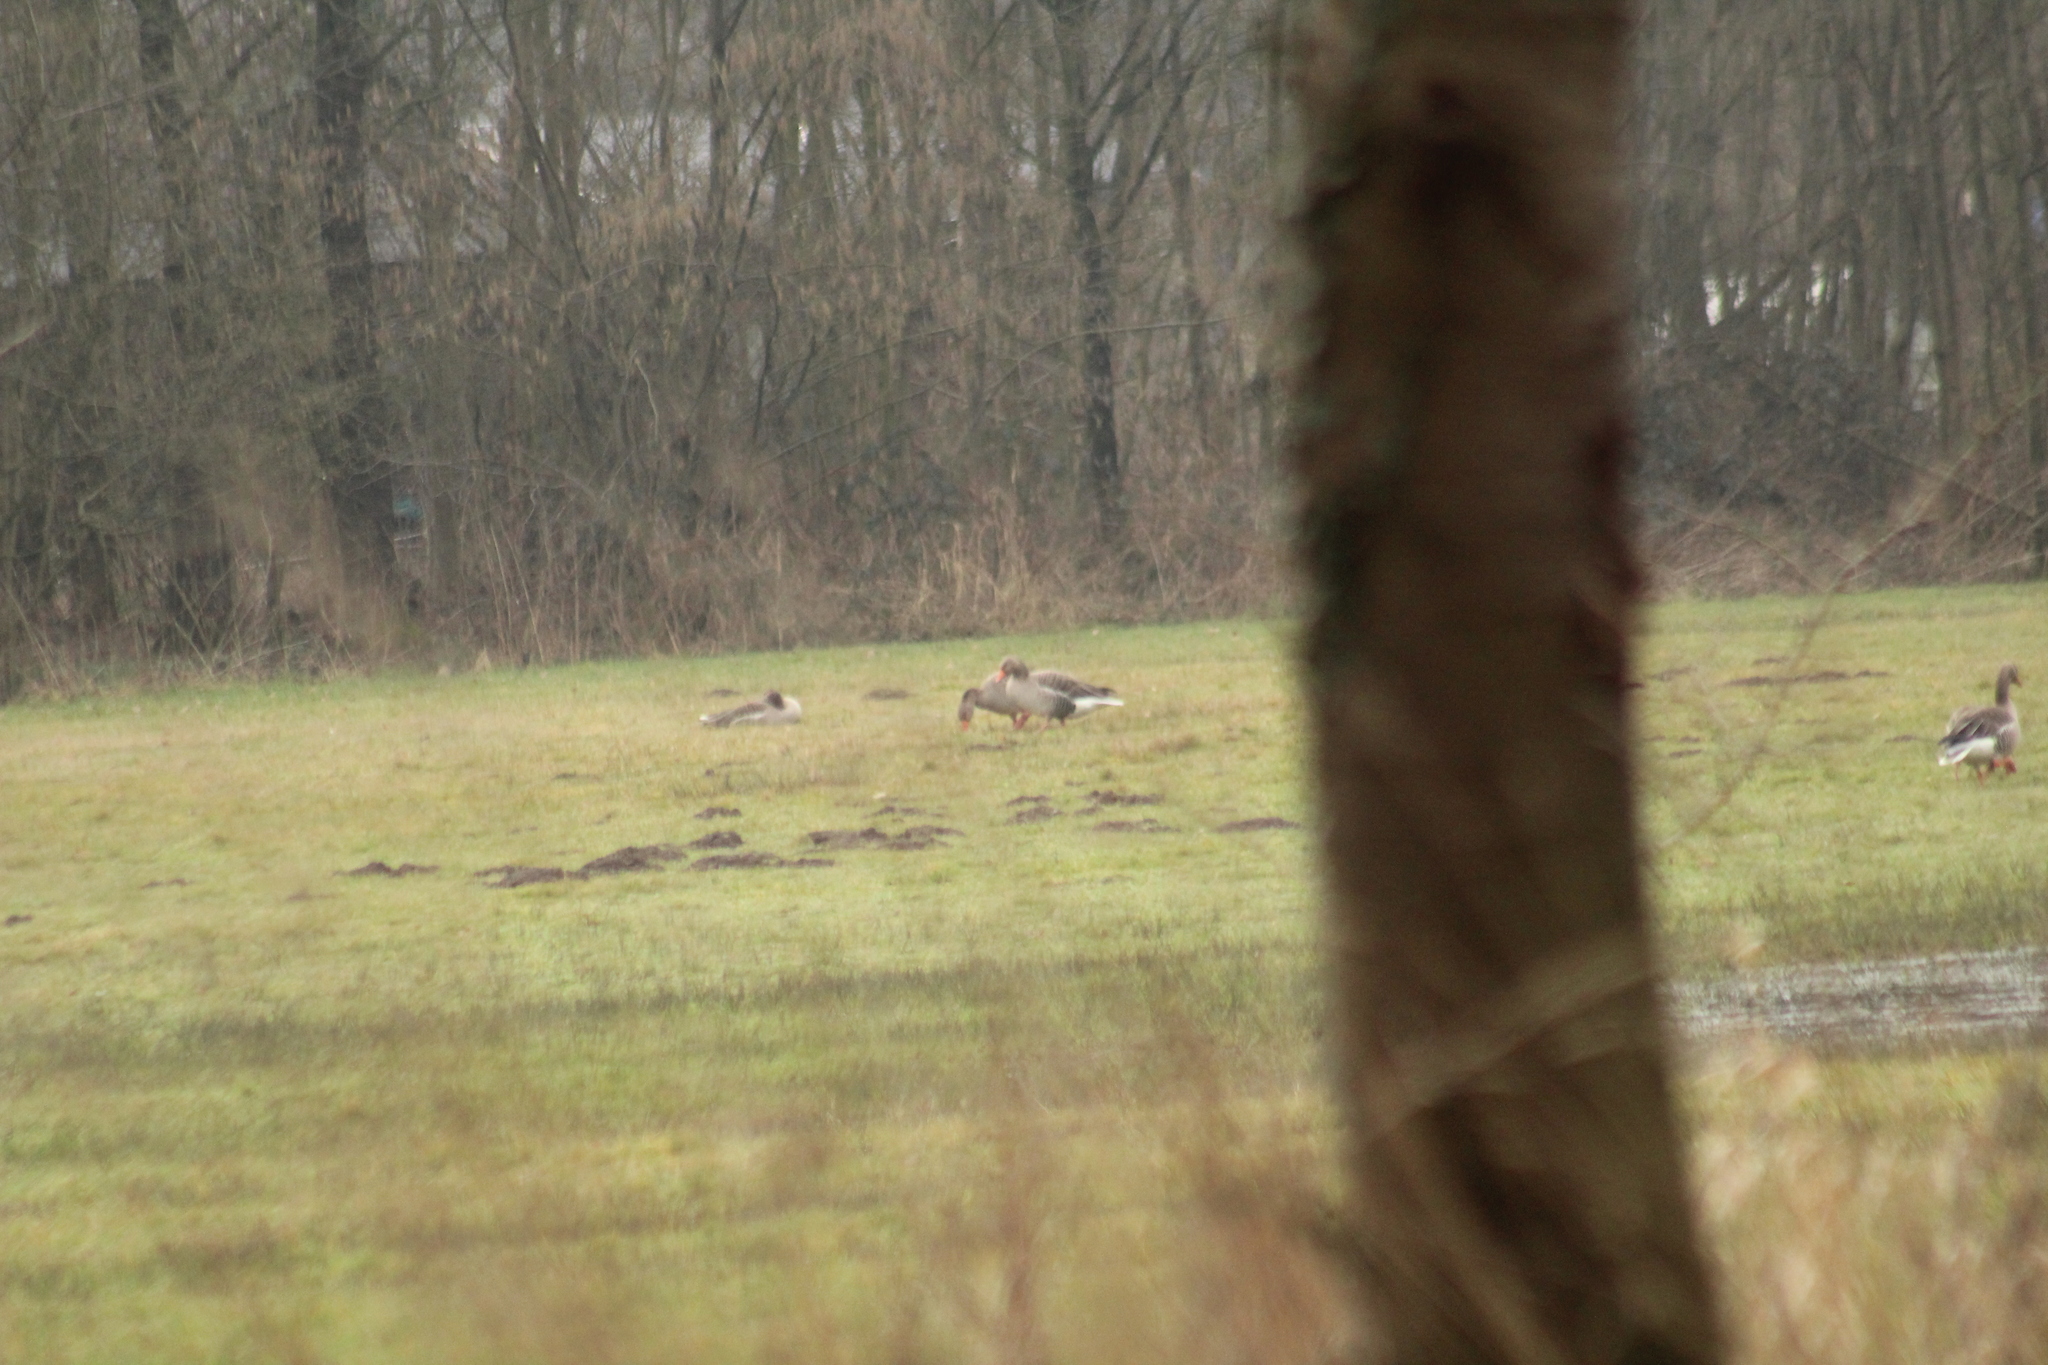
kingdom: Animalia
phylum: Chordata
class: Aves
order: Anseriformes
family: Anatidae
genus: Anser
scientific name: Anser anser
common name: Greylag goose
